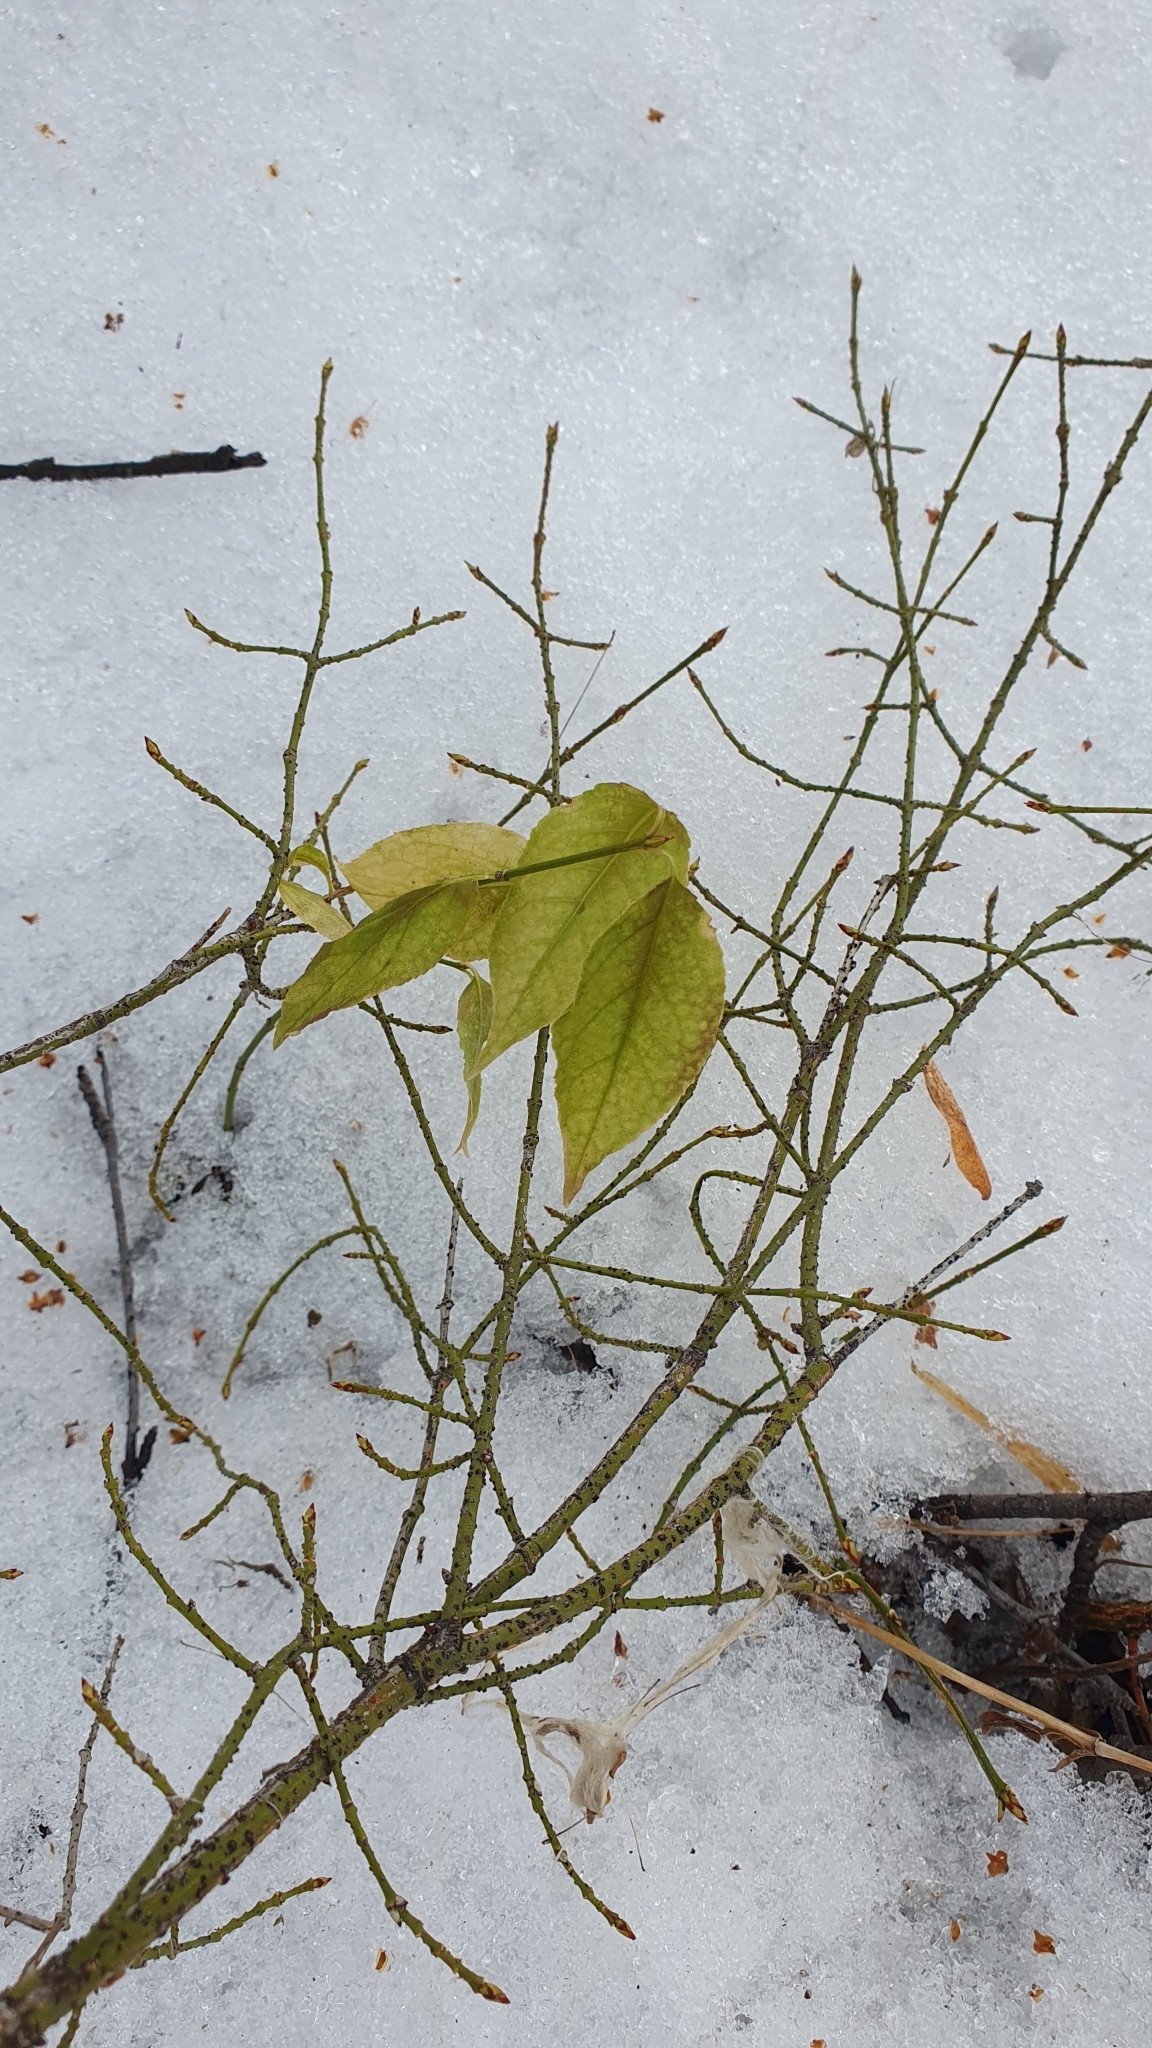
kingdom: Plantae
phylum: Tracheophyta
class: Magnoliopsida
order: Celastrales
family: Celastraceae
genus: Euonymus
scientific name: Euonymus verrucosus
